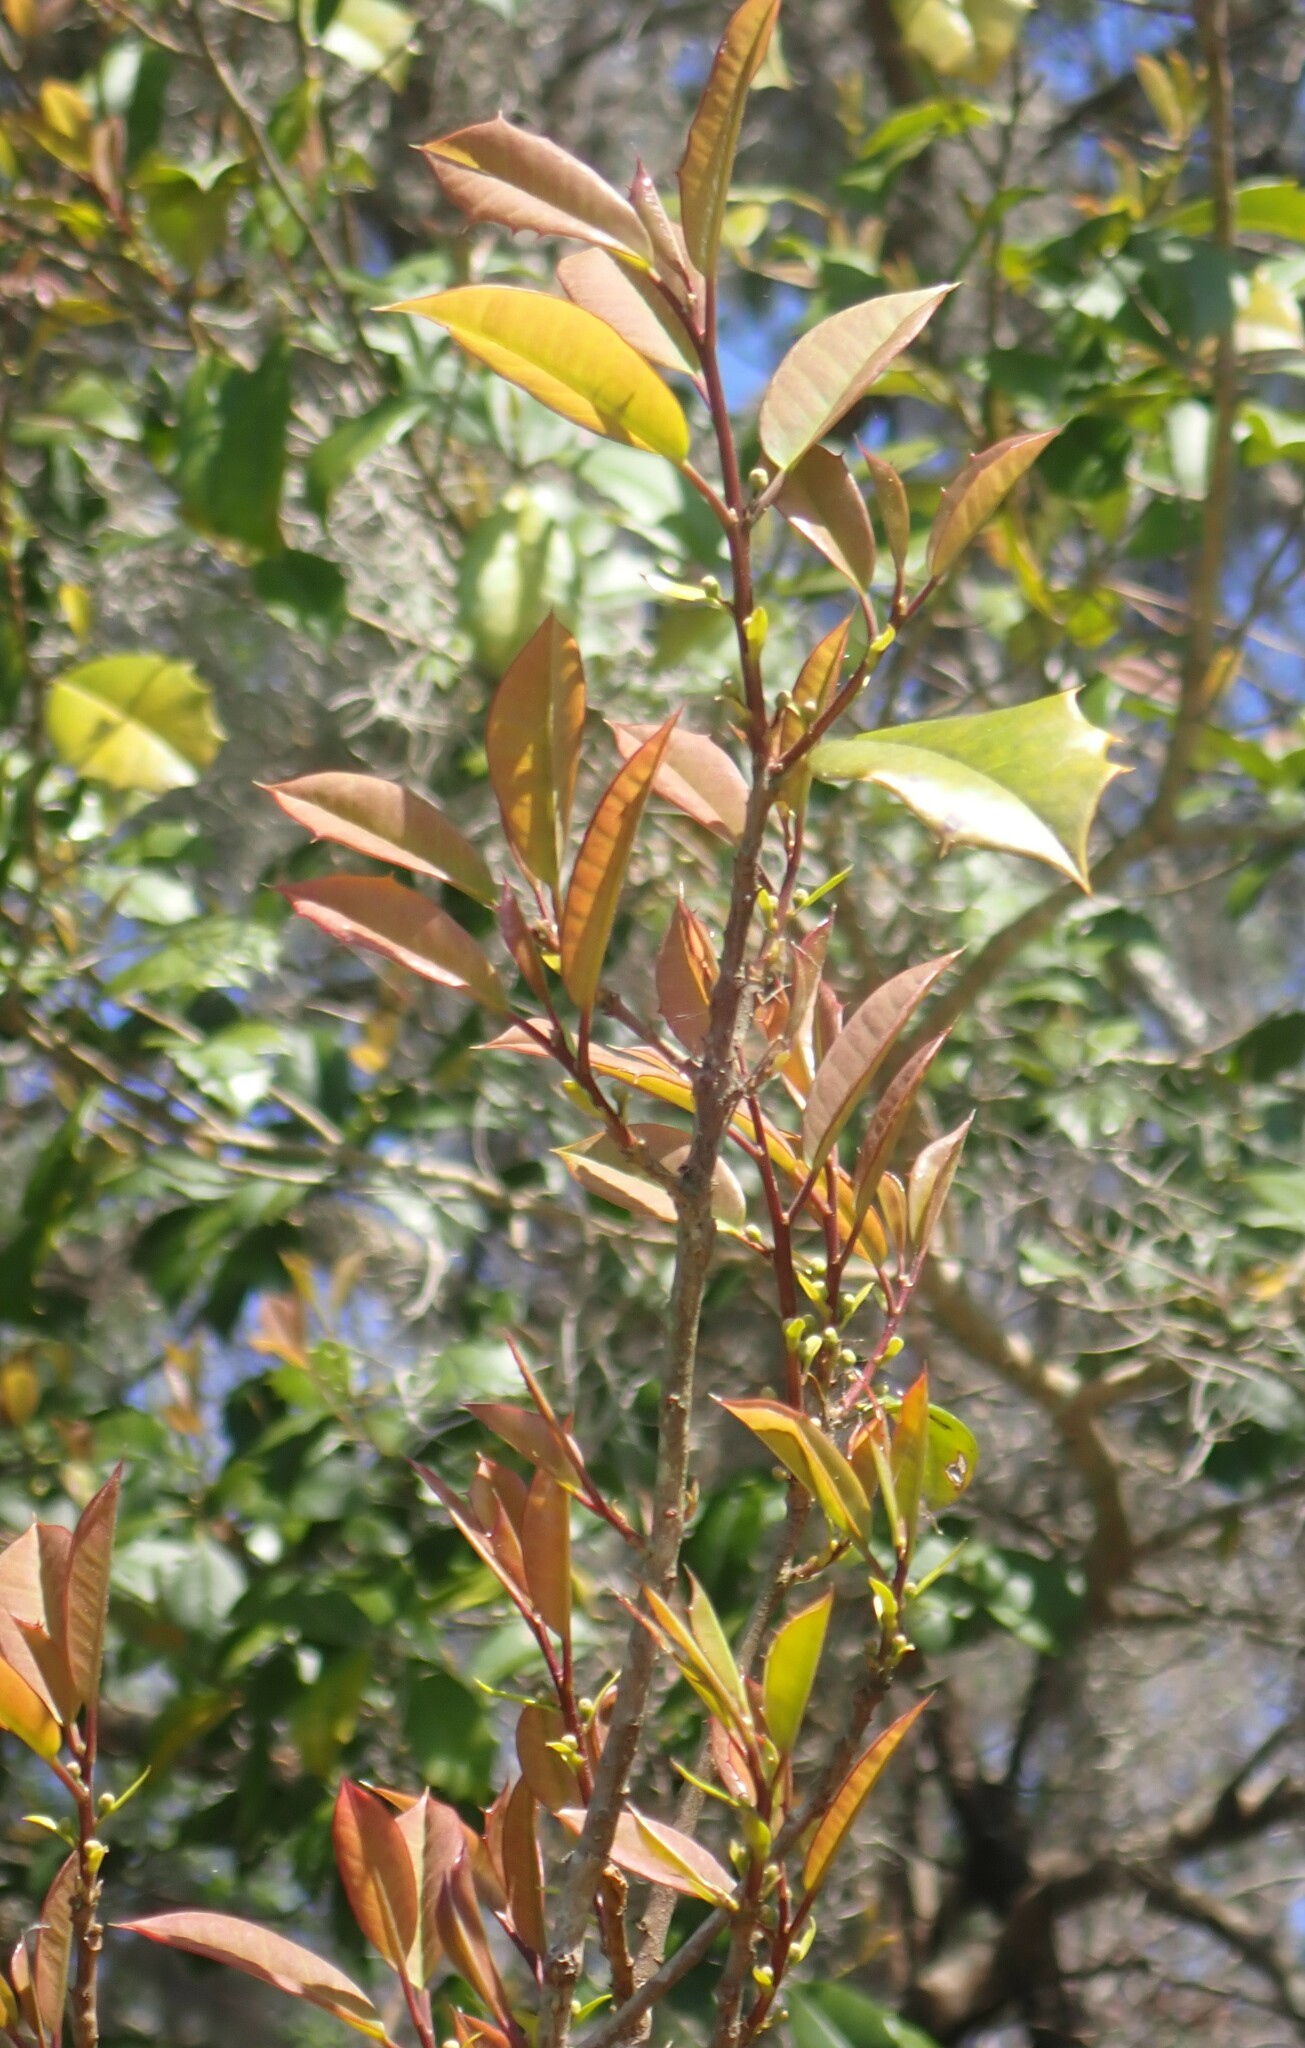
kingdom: Plantae
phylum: Tracheophyta
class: Magnoliopsida
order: Aquifoliales
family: Aquifoliaceae
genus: Ilex
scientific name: Ilex opaca
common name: American holly
